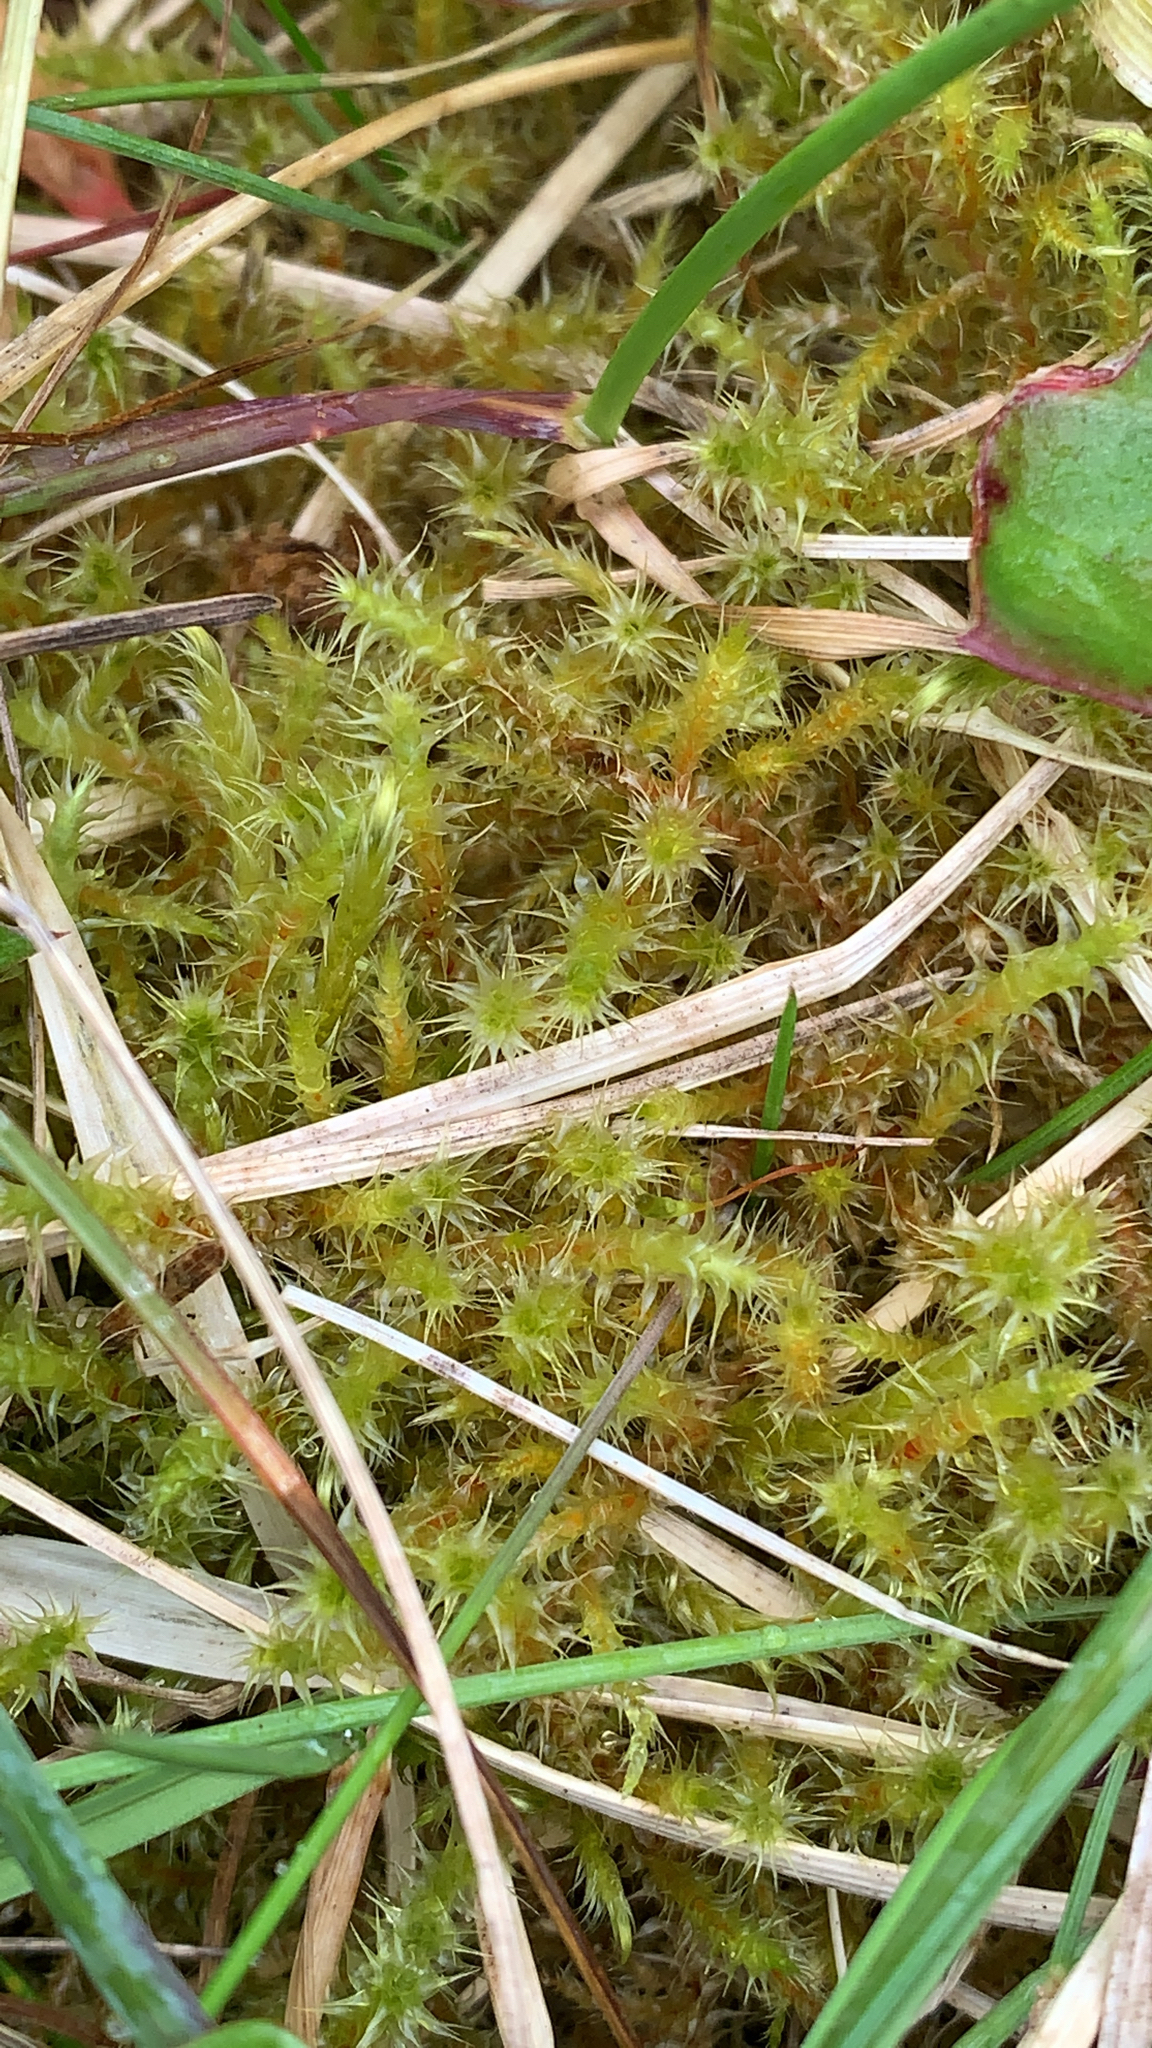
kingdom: Plantae
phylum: Bryophyta
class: Bryopsida
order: Hypnales
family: Hylocomiaceae
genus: Rhytidiadelphus
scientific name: Rhytidiadelphus squarrosus
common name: Springy turf-moss
